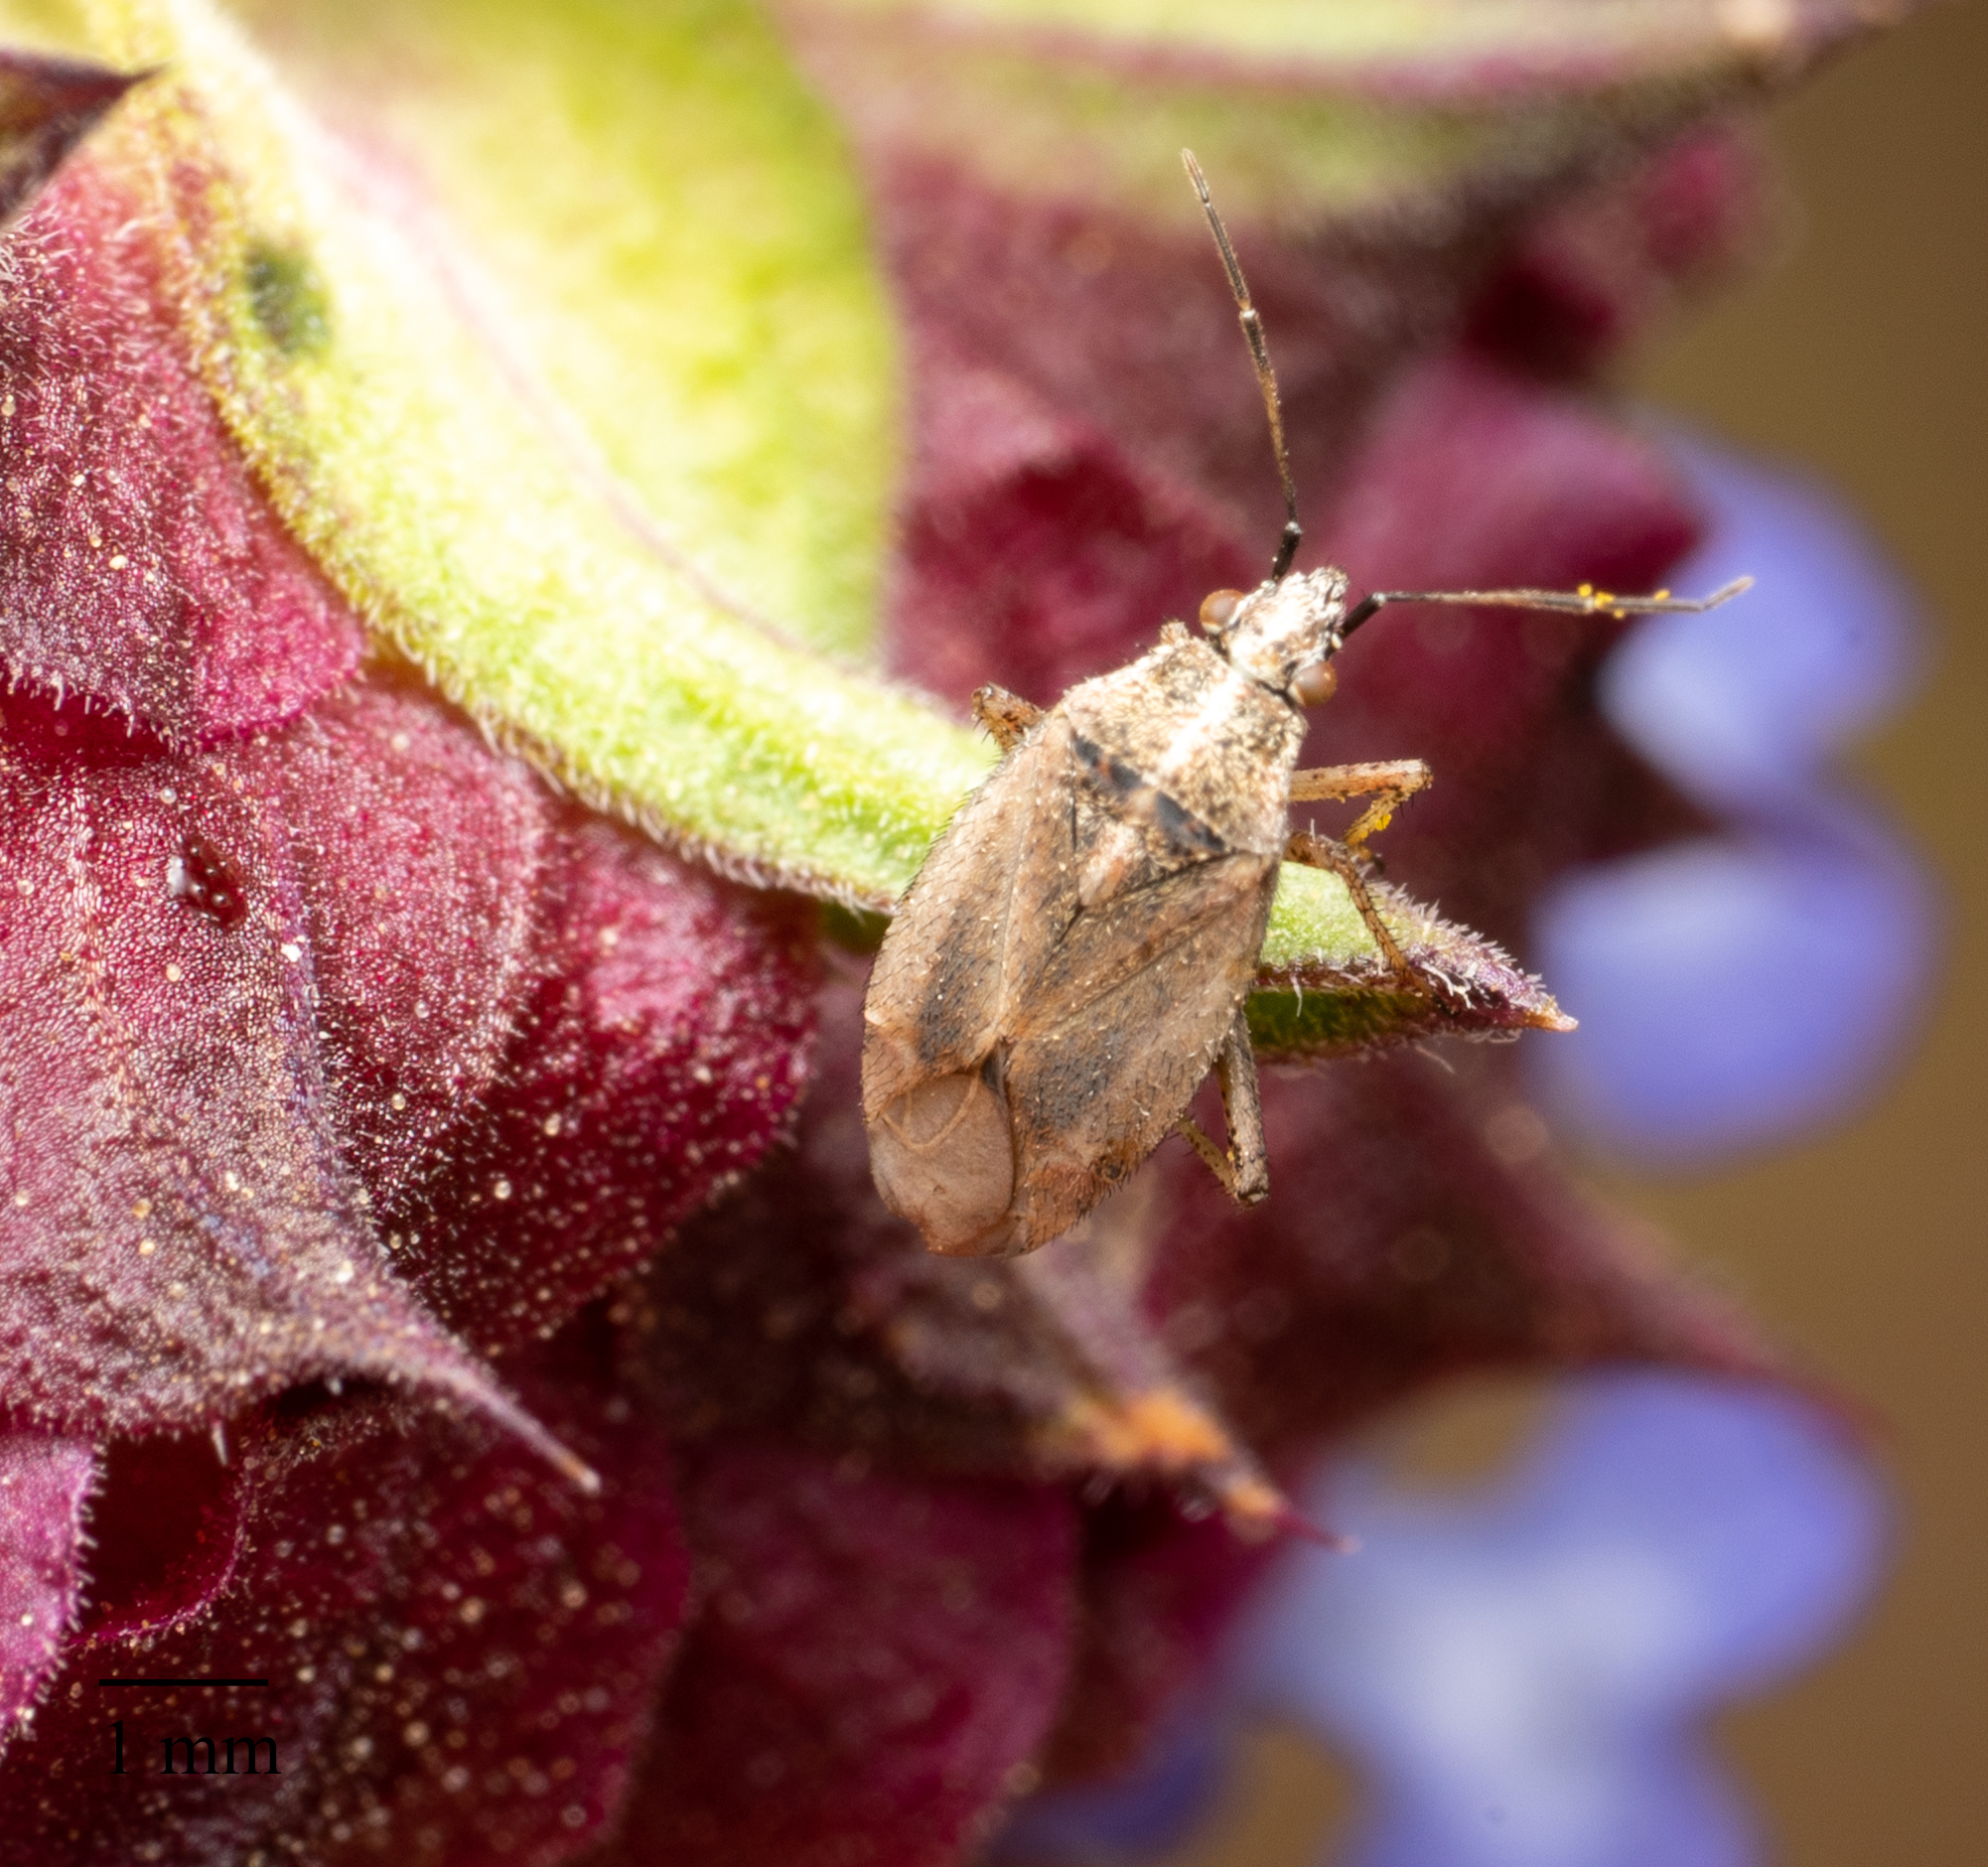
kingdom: Animalia
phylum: Arthropoda
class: Insecta
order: Hemiptera
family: Miridae
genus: Hoplomachidea
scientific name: Hoplomachidea consors
